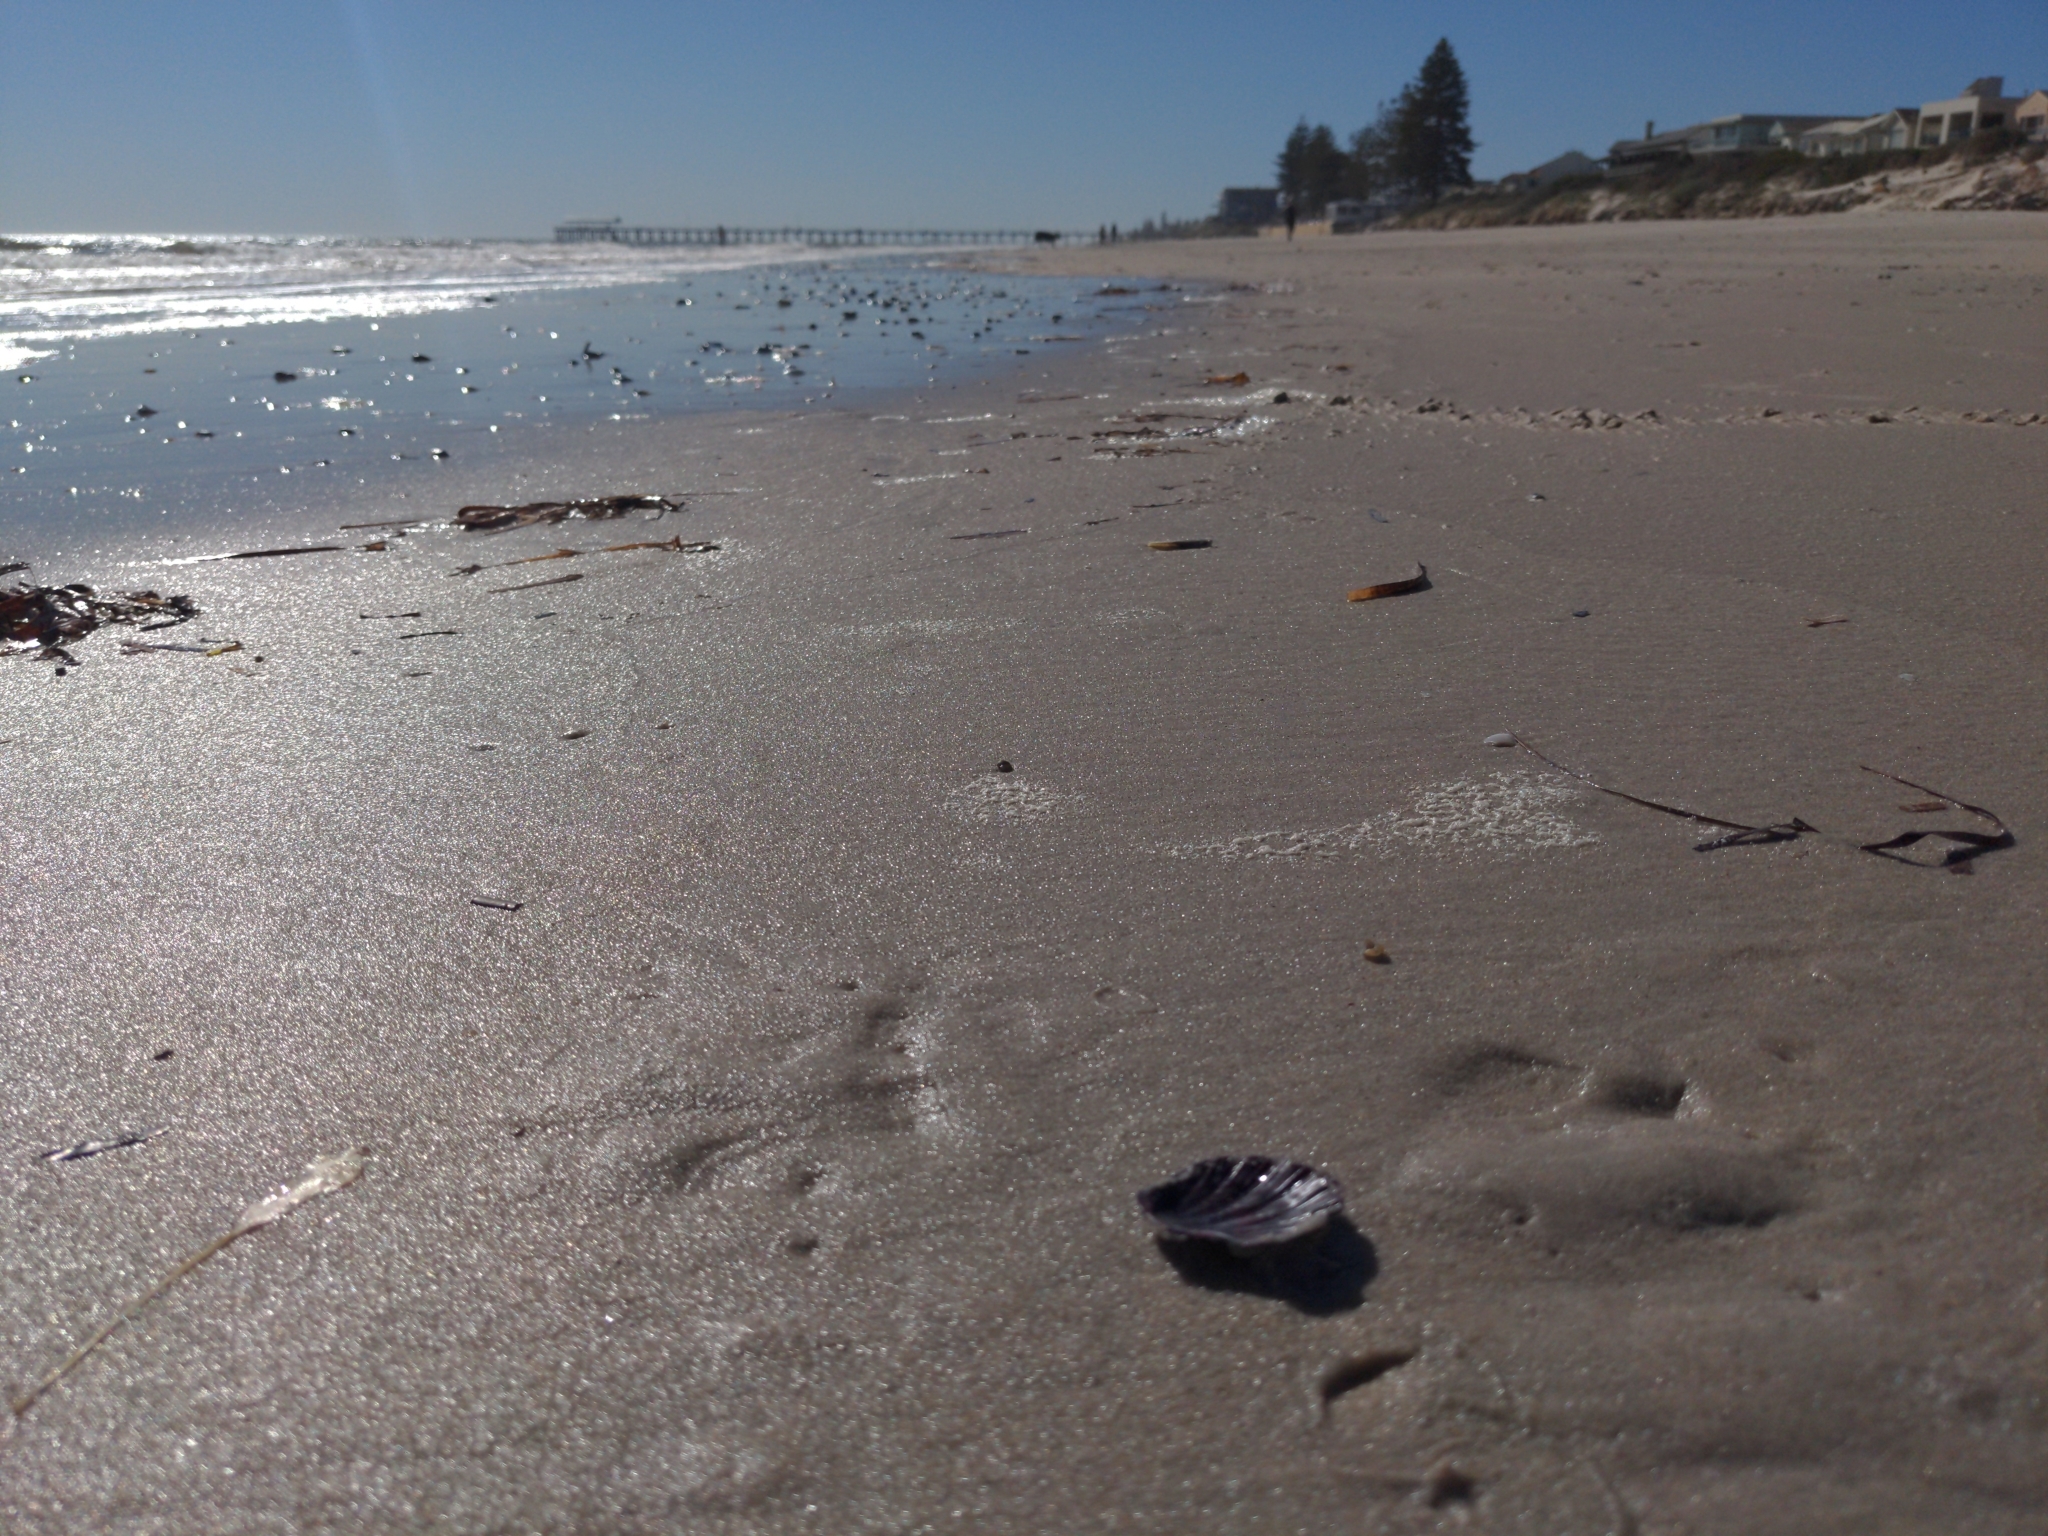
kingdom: Animalia
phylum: Mollusca
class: Bivalvia
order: Pectinida
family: Pectinidae
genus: Equichlamys
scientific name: Equichlamys bifrons
